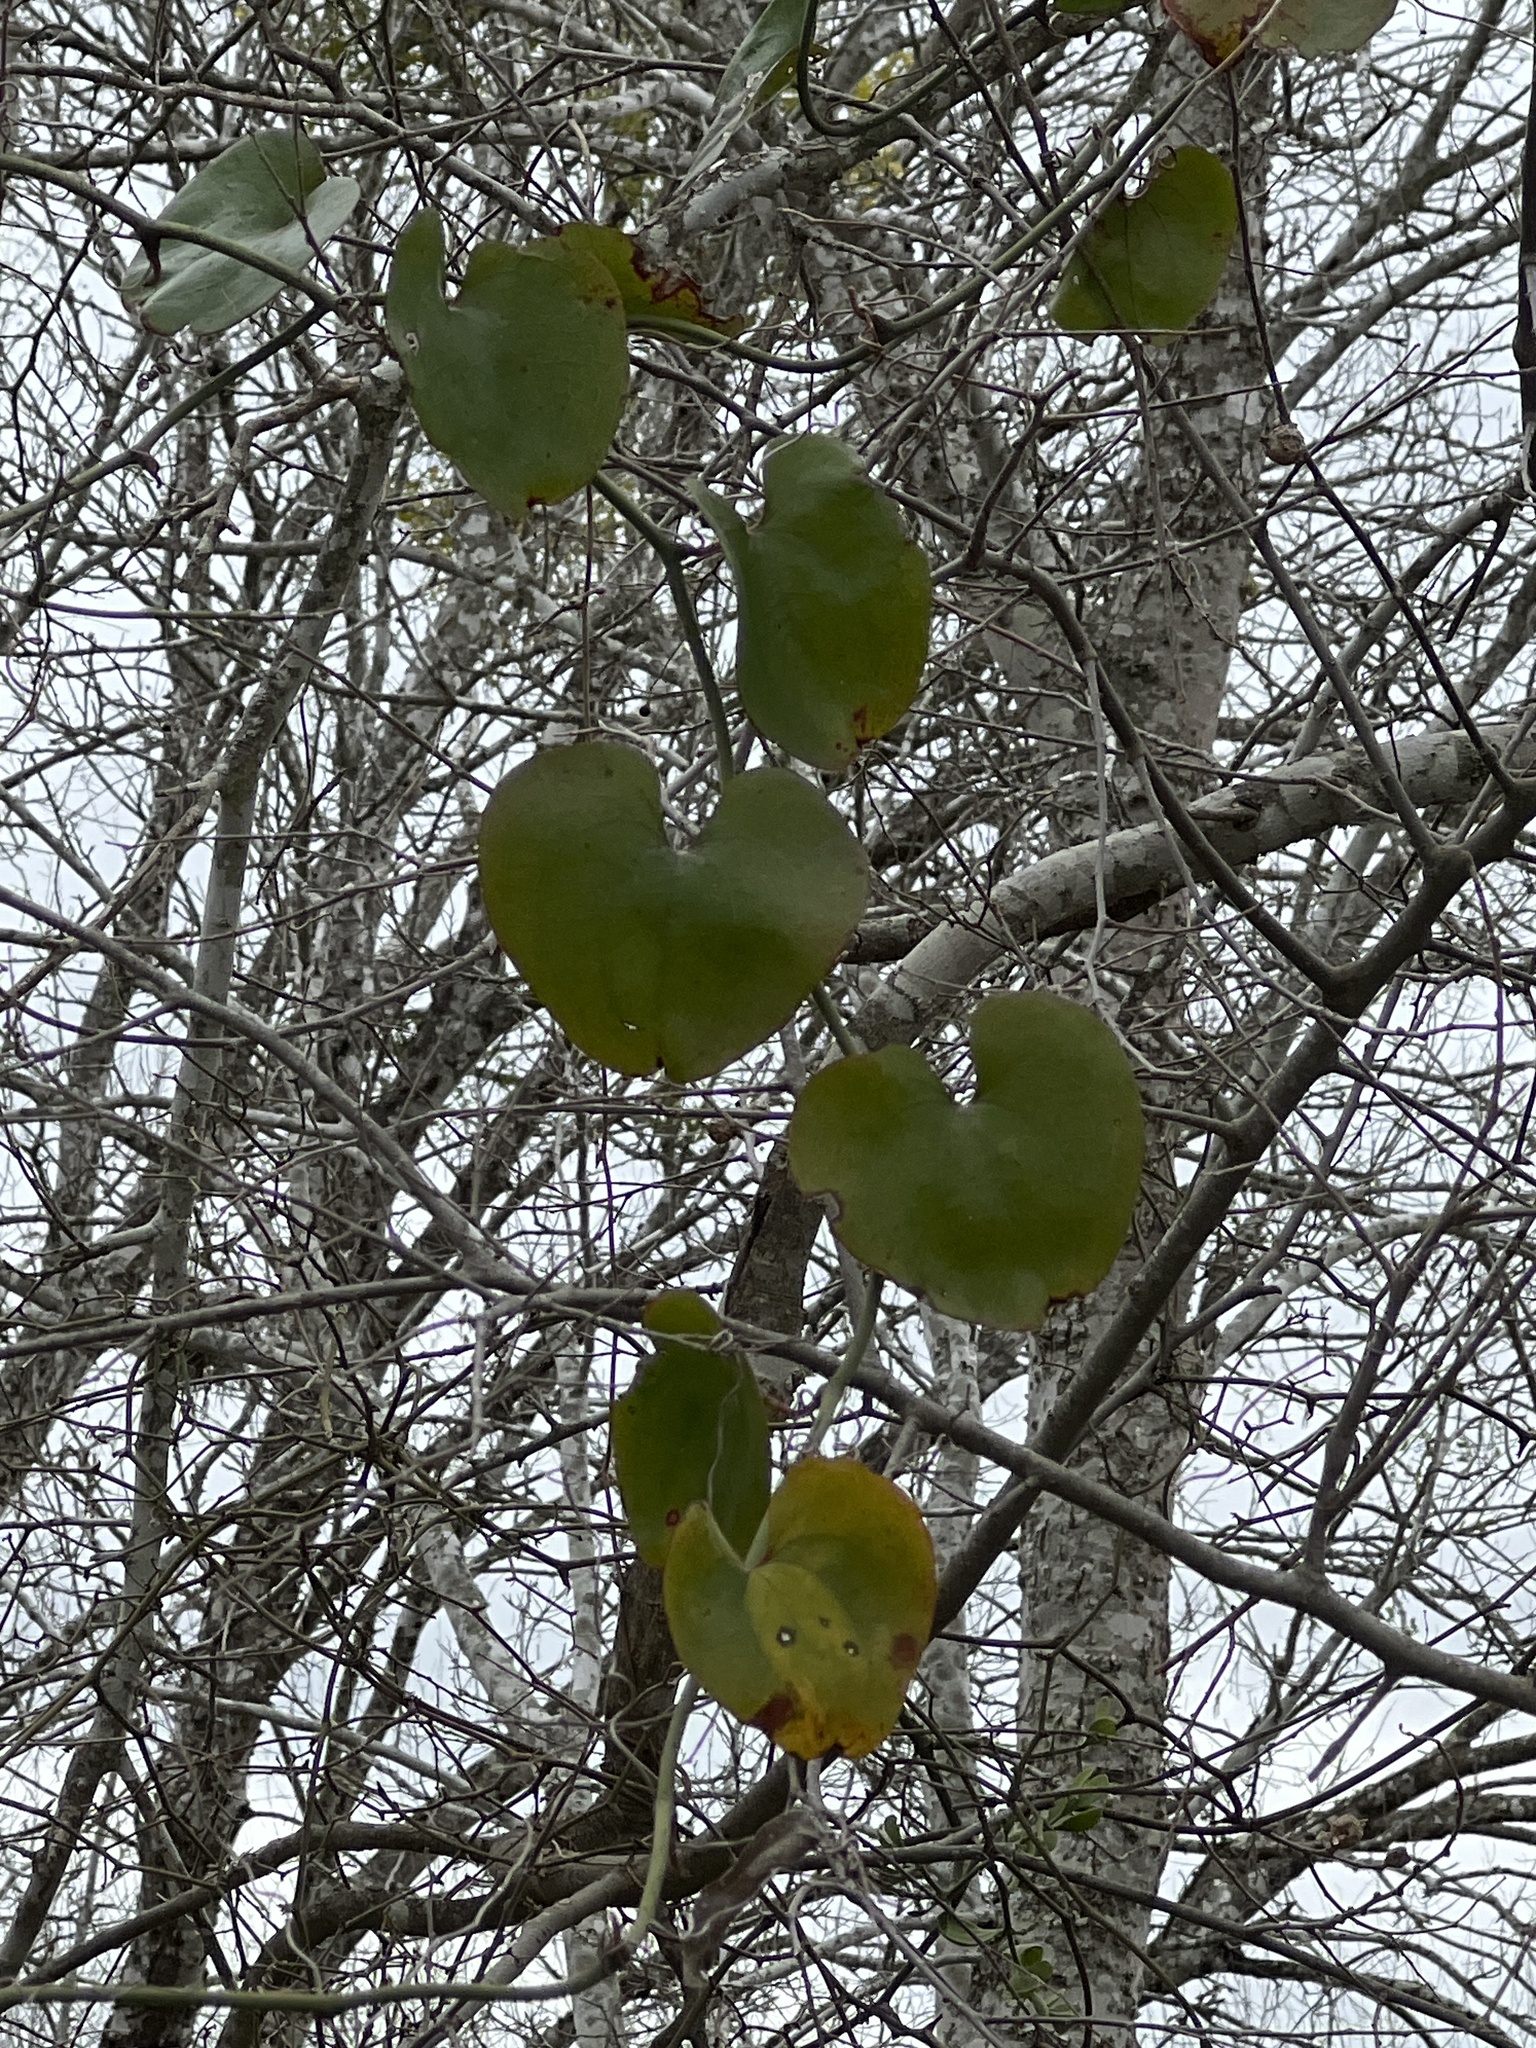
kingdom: Plantae
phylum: Tracheophyta
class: Liliopsida
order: Liliales
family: Smilacaceae
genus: Smilax
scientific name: Smilax bona-nox
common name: Catbrier
